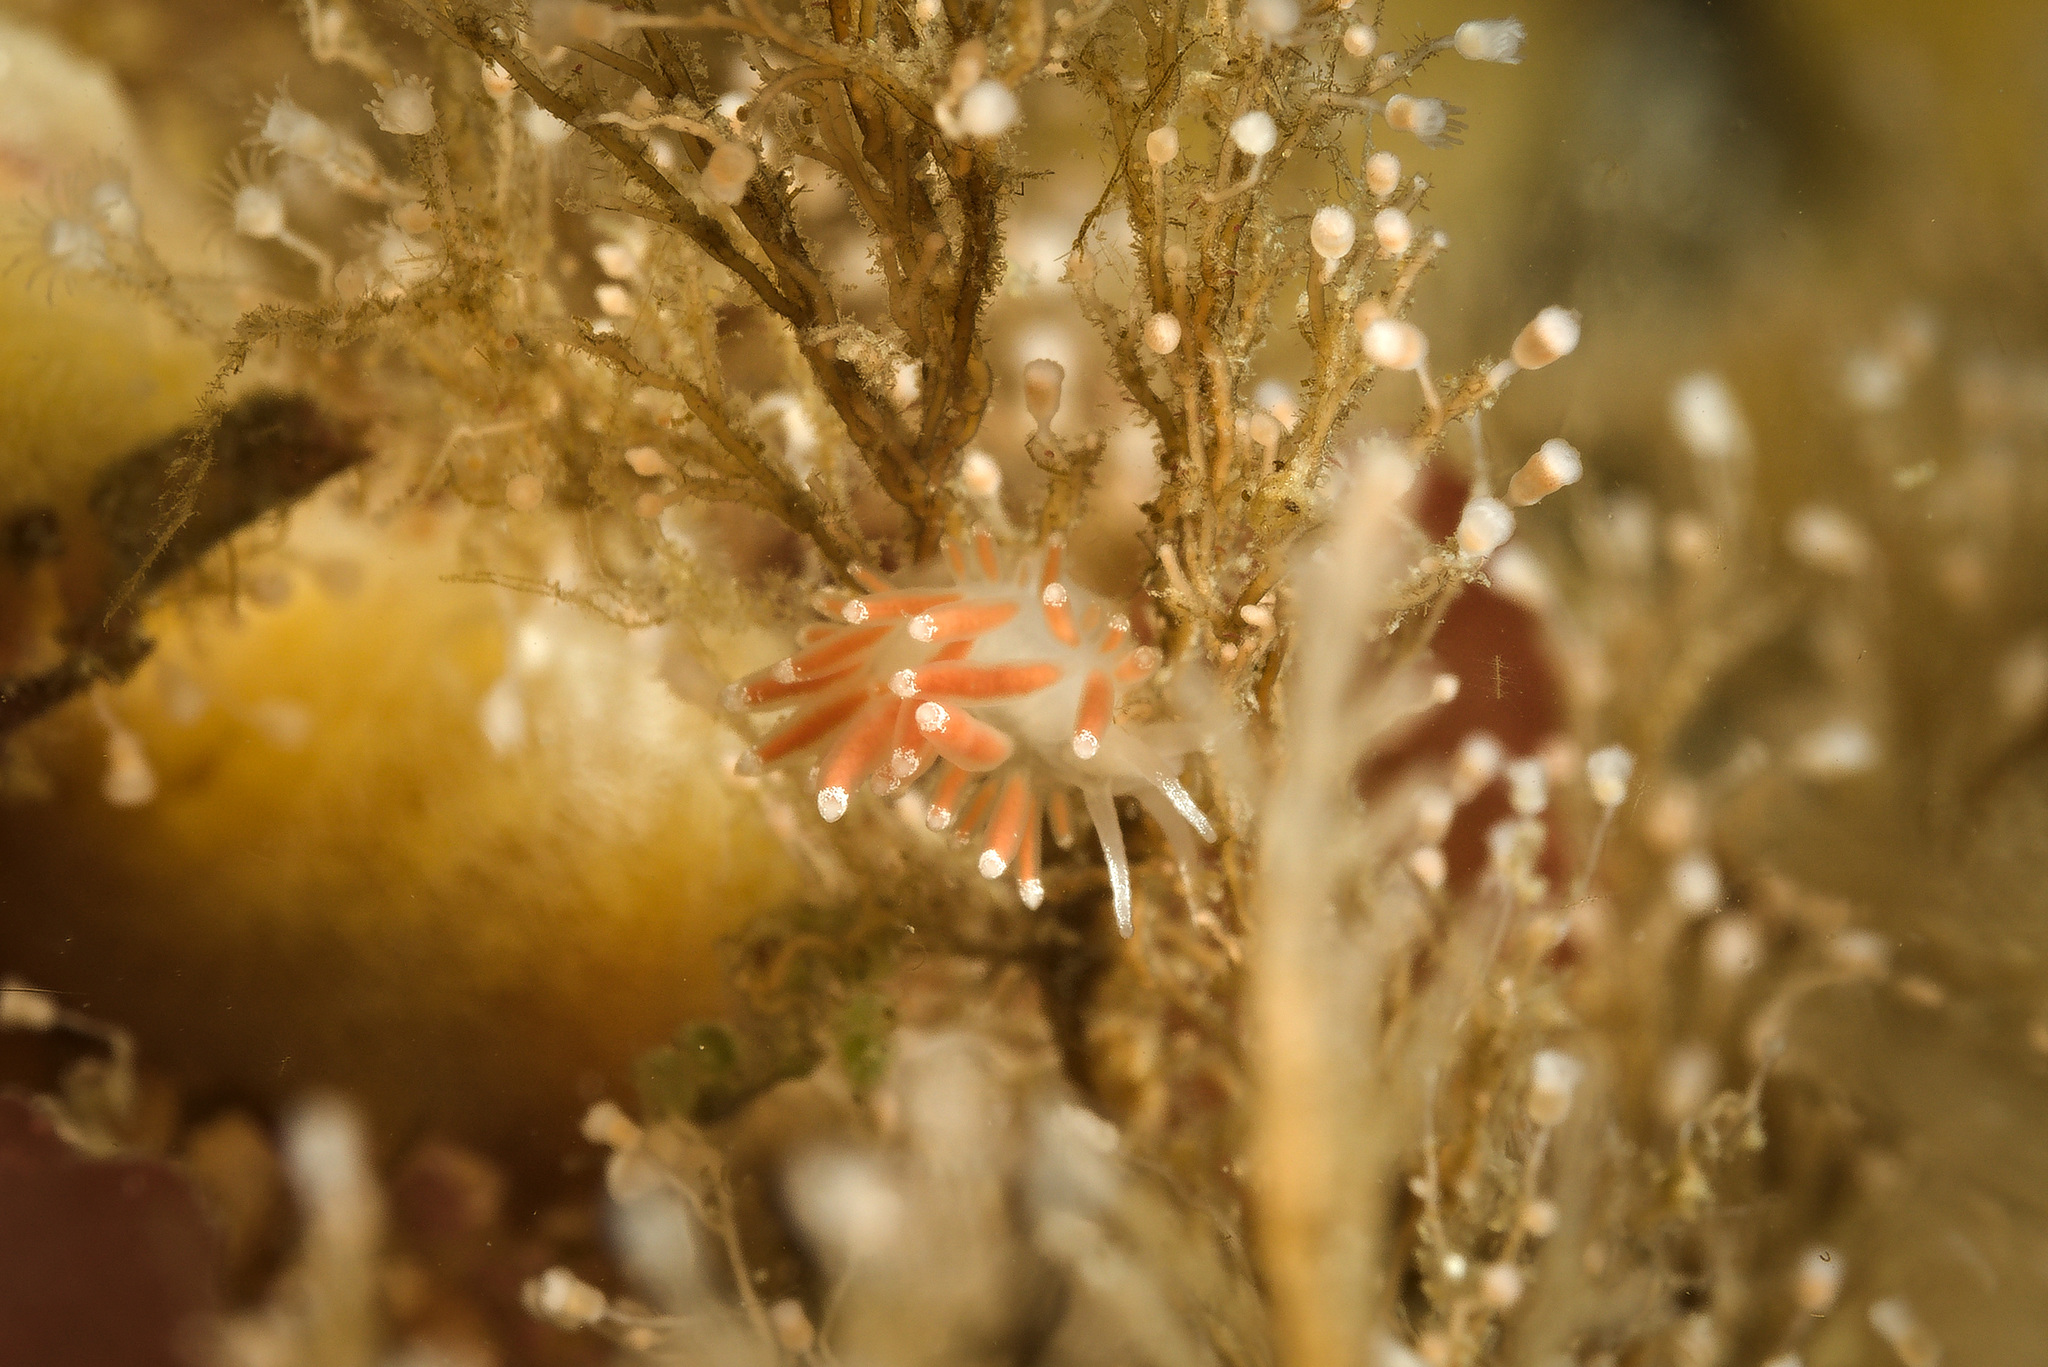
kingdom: Animalia
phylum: Mollusca
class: Gastropoda
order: Nudibranchia
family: Coryphellidae
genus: Coryphella
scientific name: Coryphella gracilis
